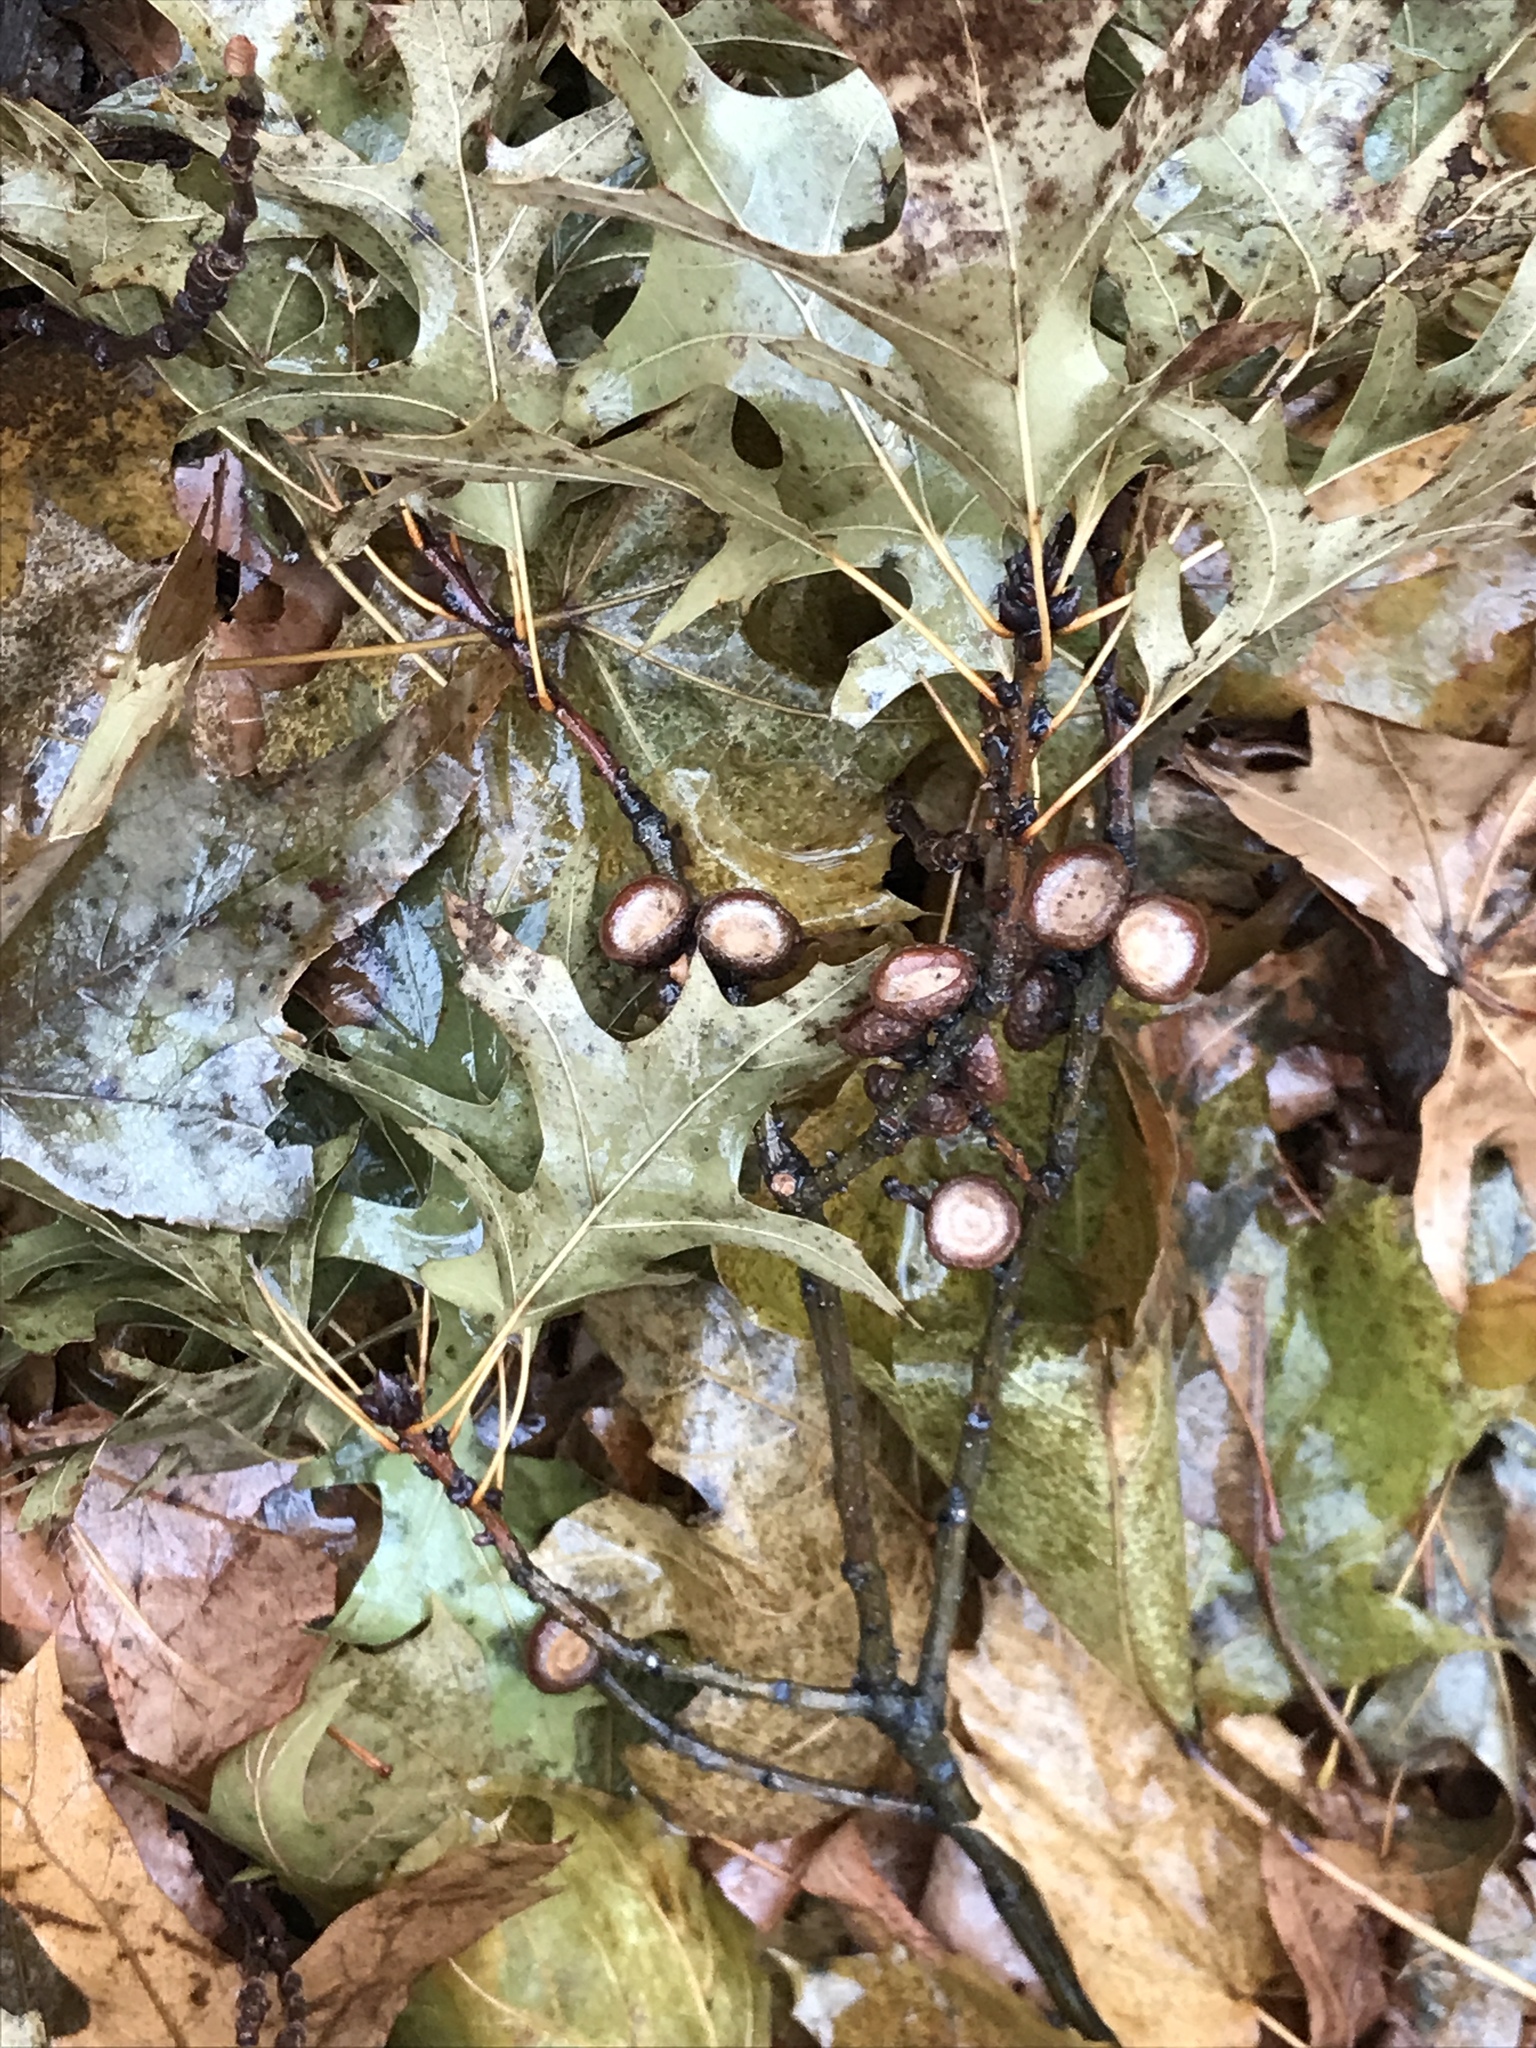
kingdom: Plantae
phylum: Tracheophyta
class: Magnoliopsida
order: Fagales
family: Fagaceae
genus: Quercus
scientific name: Quercus palustris
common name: Pin oak
